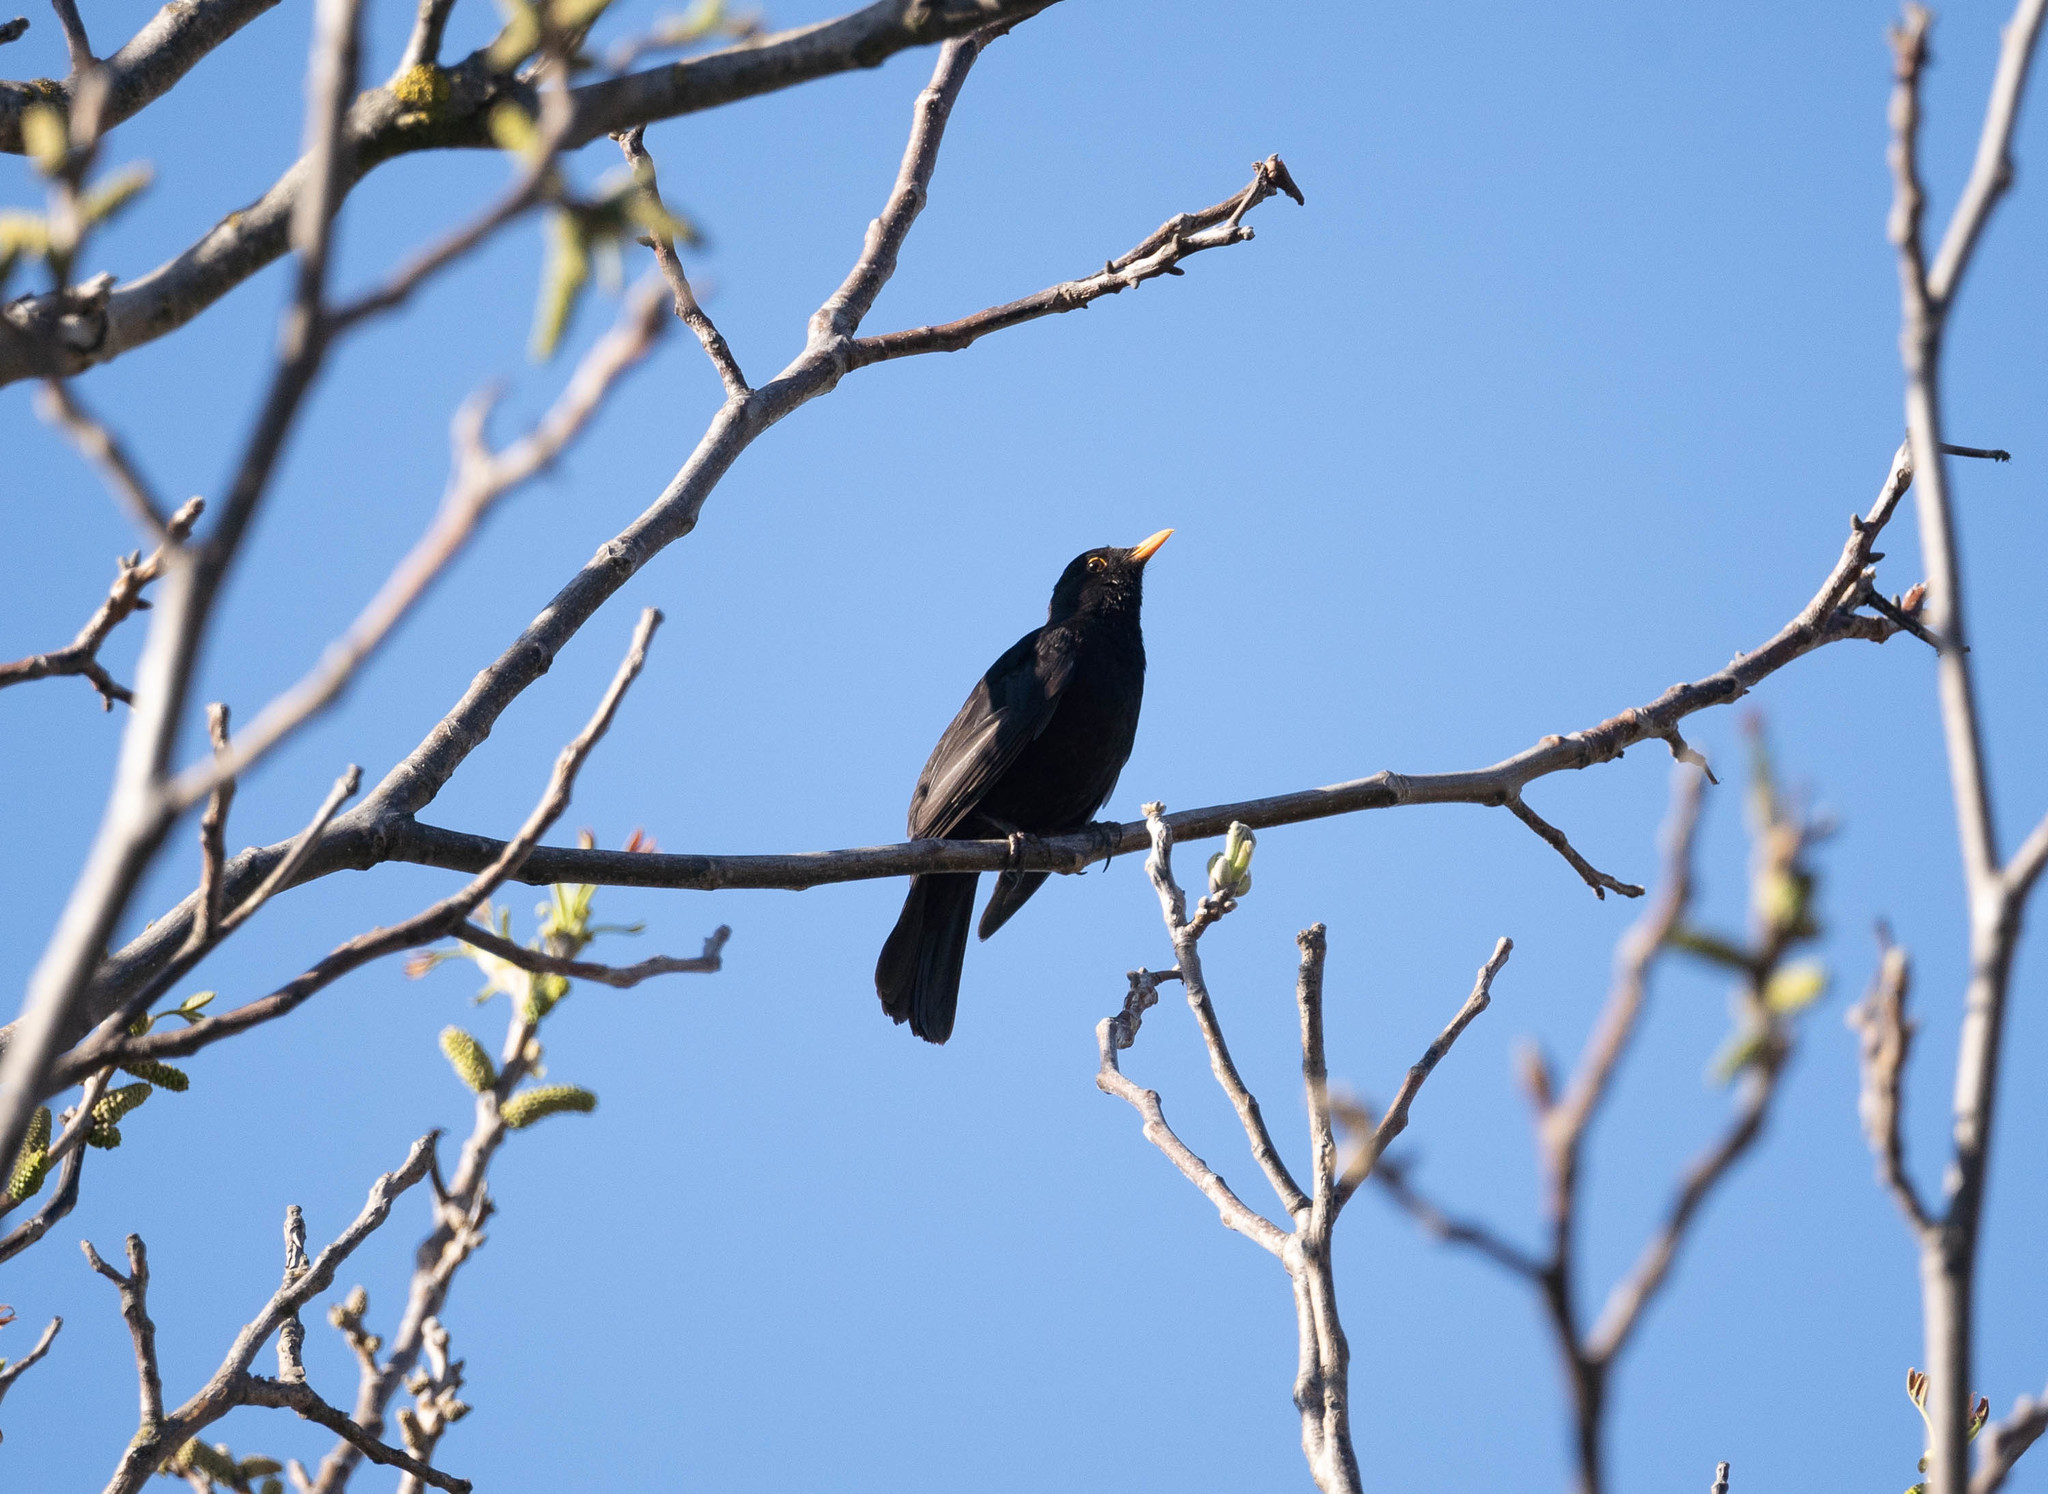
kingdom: Animalia
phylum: Chordata
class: Aves
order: Passeriformes
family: Turdidae
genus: Turdus
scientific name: Turdus merula
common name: Common blackbird
